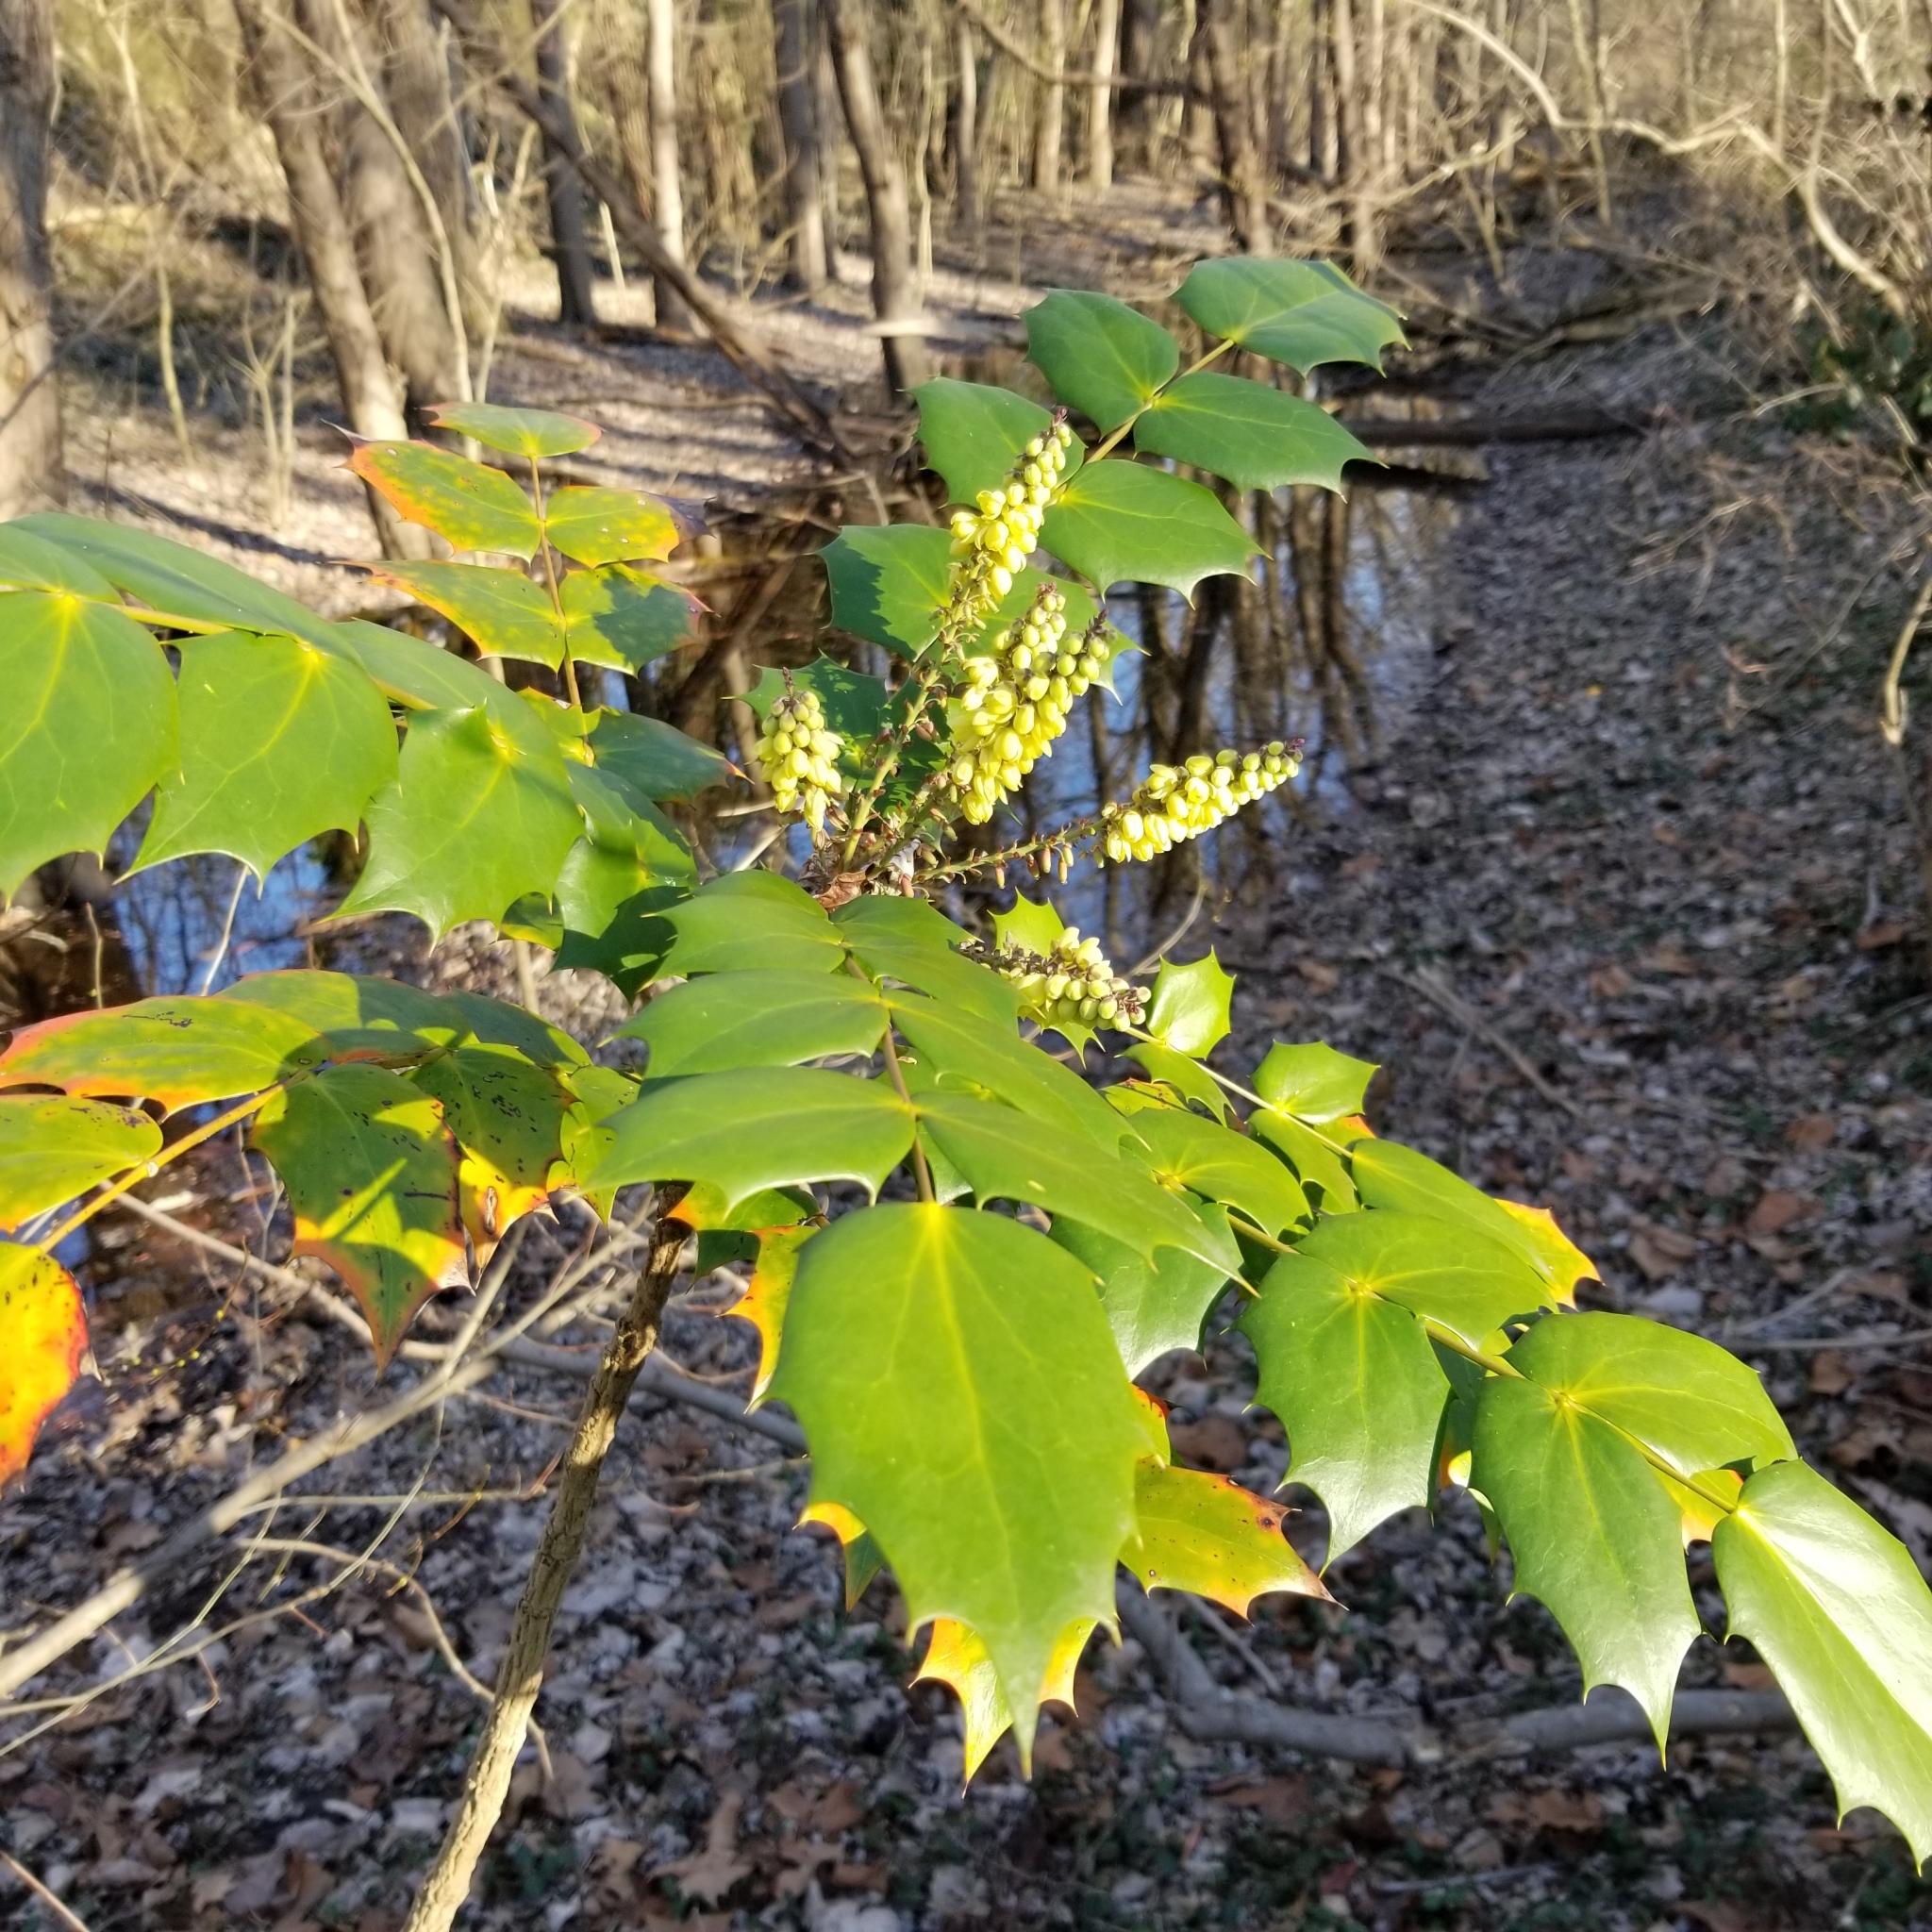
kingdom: Plantae
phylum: Tracheophyta
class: Magnoliopsida
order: Ranunculales
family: Berberidaceae
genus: Mahonia
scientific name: Mahonia bealei
